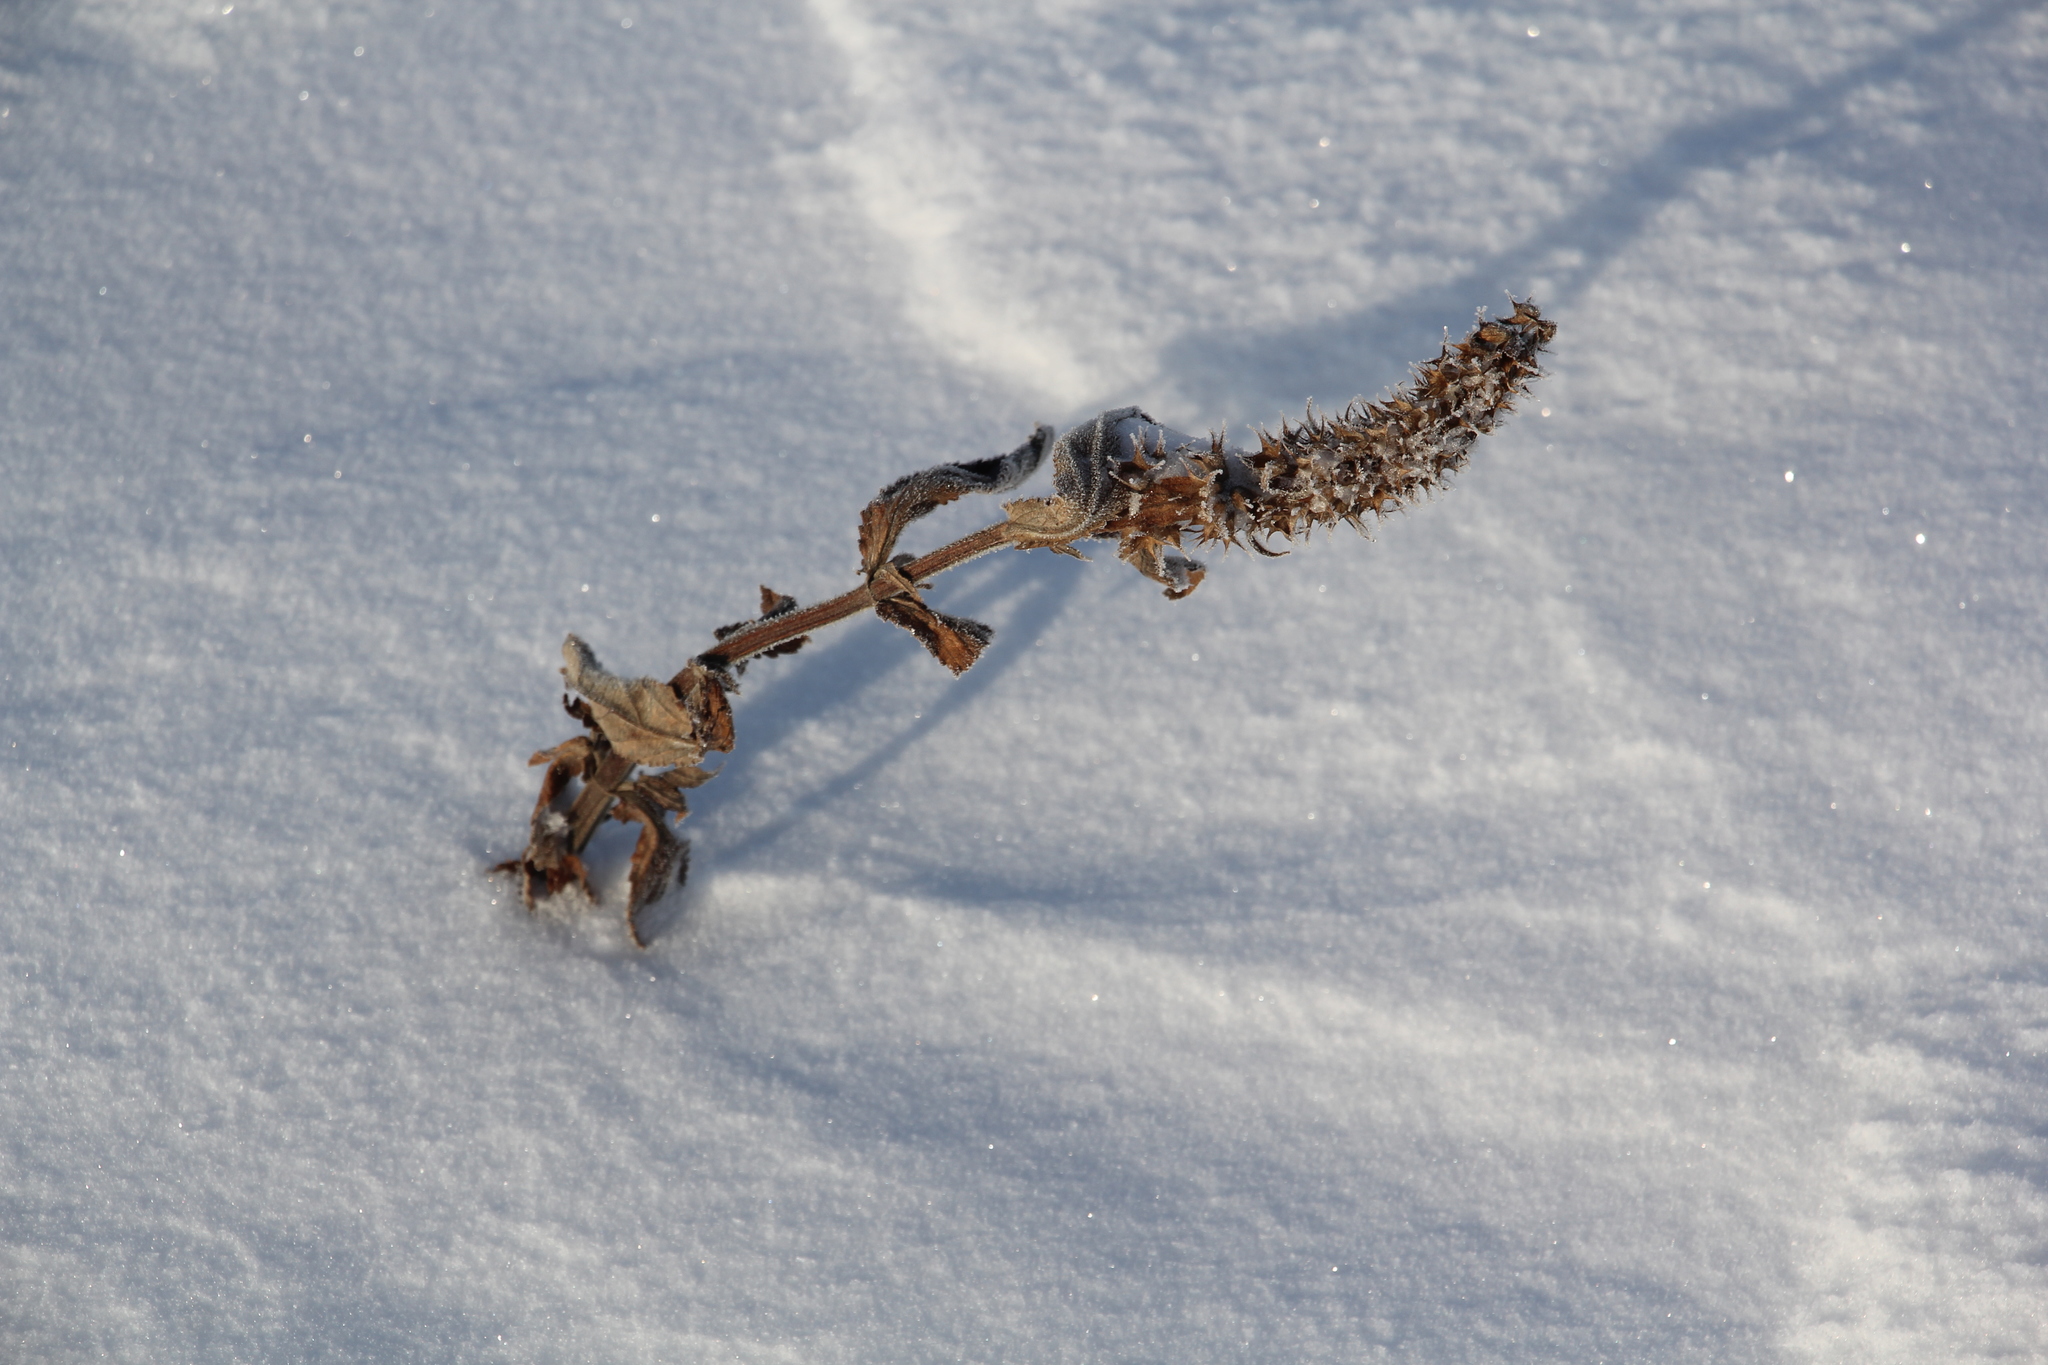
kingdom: Plantae
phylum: Tracheophyta
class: Magnoliopsida
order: Lamiales
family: Lamiaceae
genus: Stachys
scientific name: Stachys palustris
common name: Marsh woundwort
